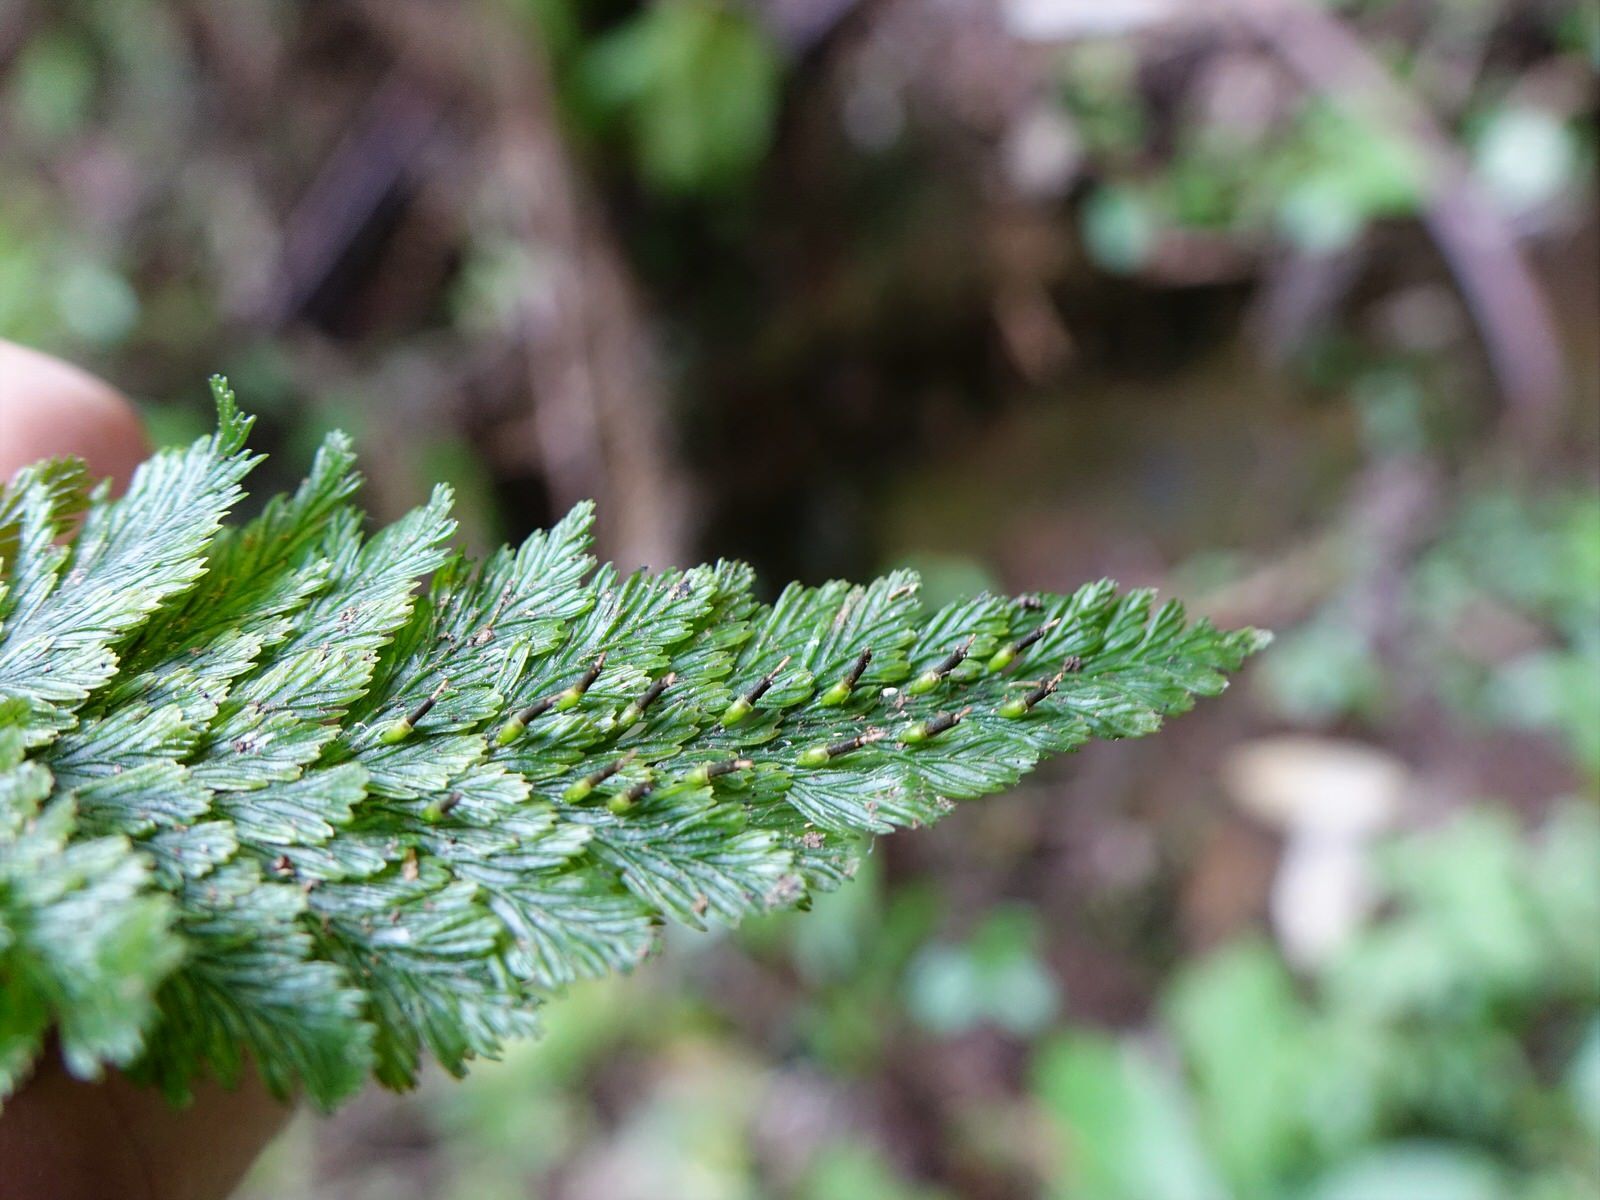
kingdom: Plantae
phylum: Tracheophyta
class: Polypodiopsida
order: Hymenophyllales
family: Hymenophyllaceae
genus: Abrodictyum
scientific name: Abrodictyum elongatum
